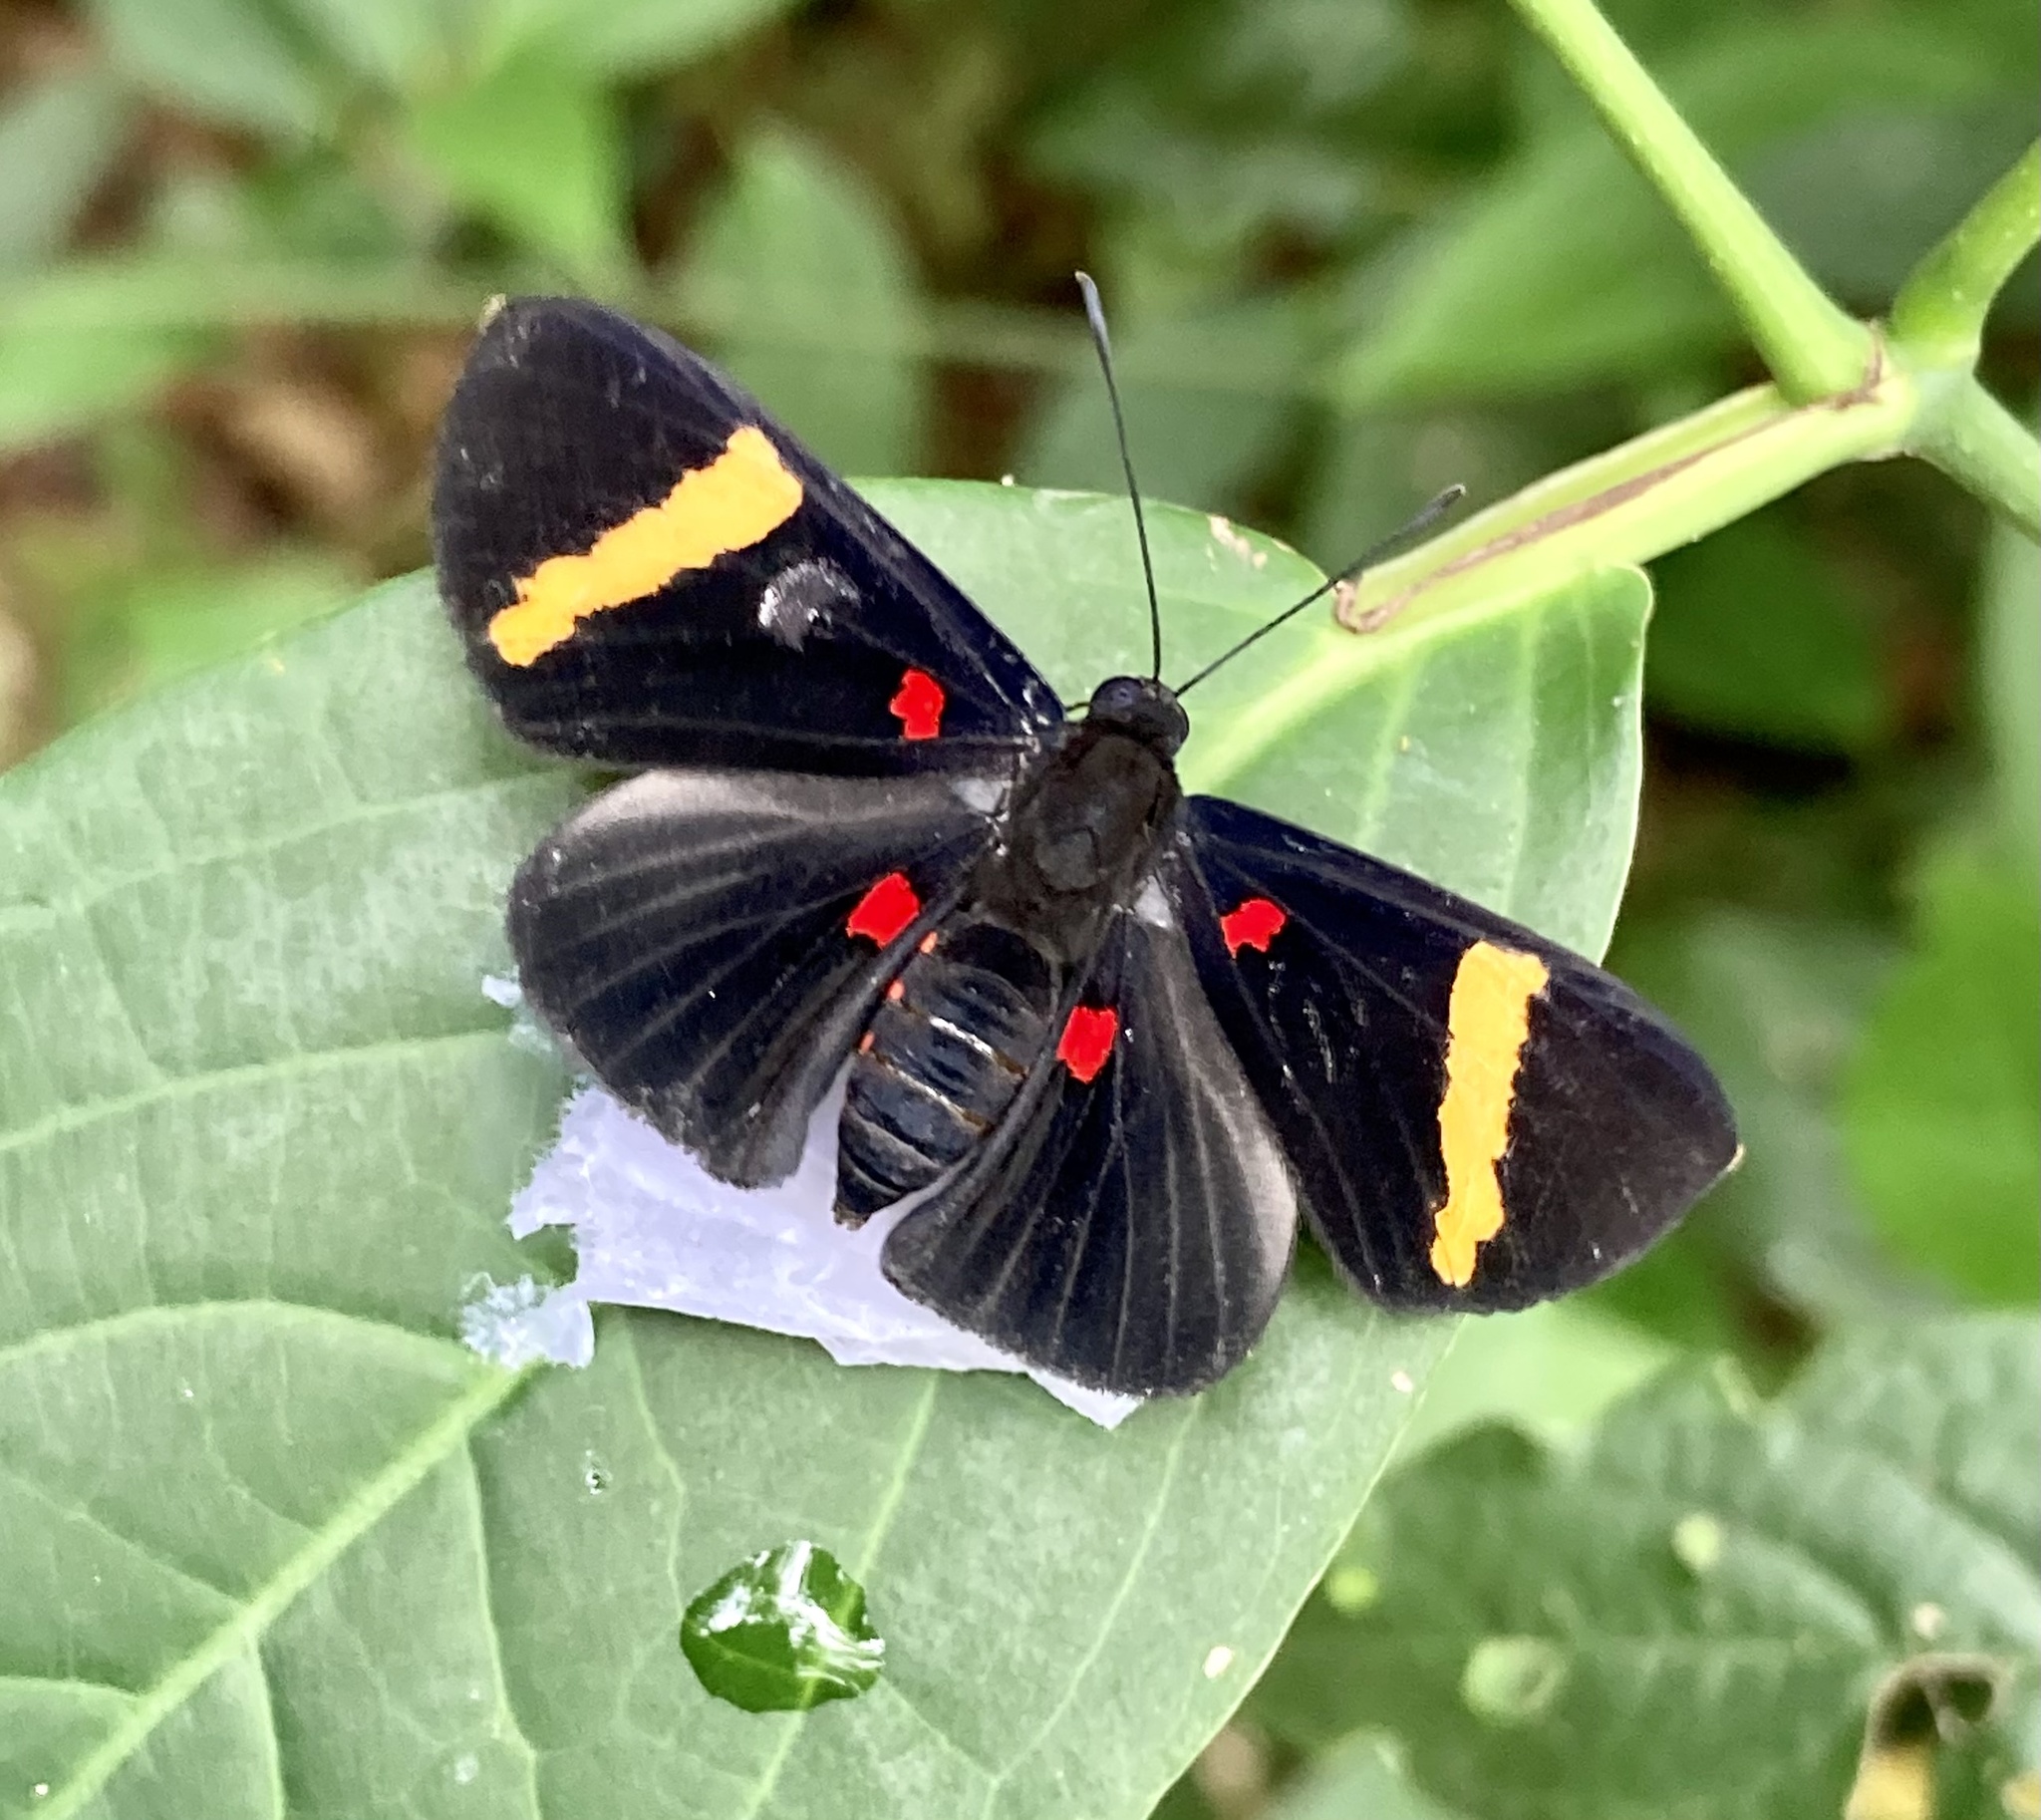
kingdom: Animalia
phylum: Arthropoda
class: Insecta
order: Lepidoptera
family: Lycaenidae
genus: Melanis
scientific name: Melanis electron
